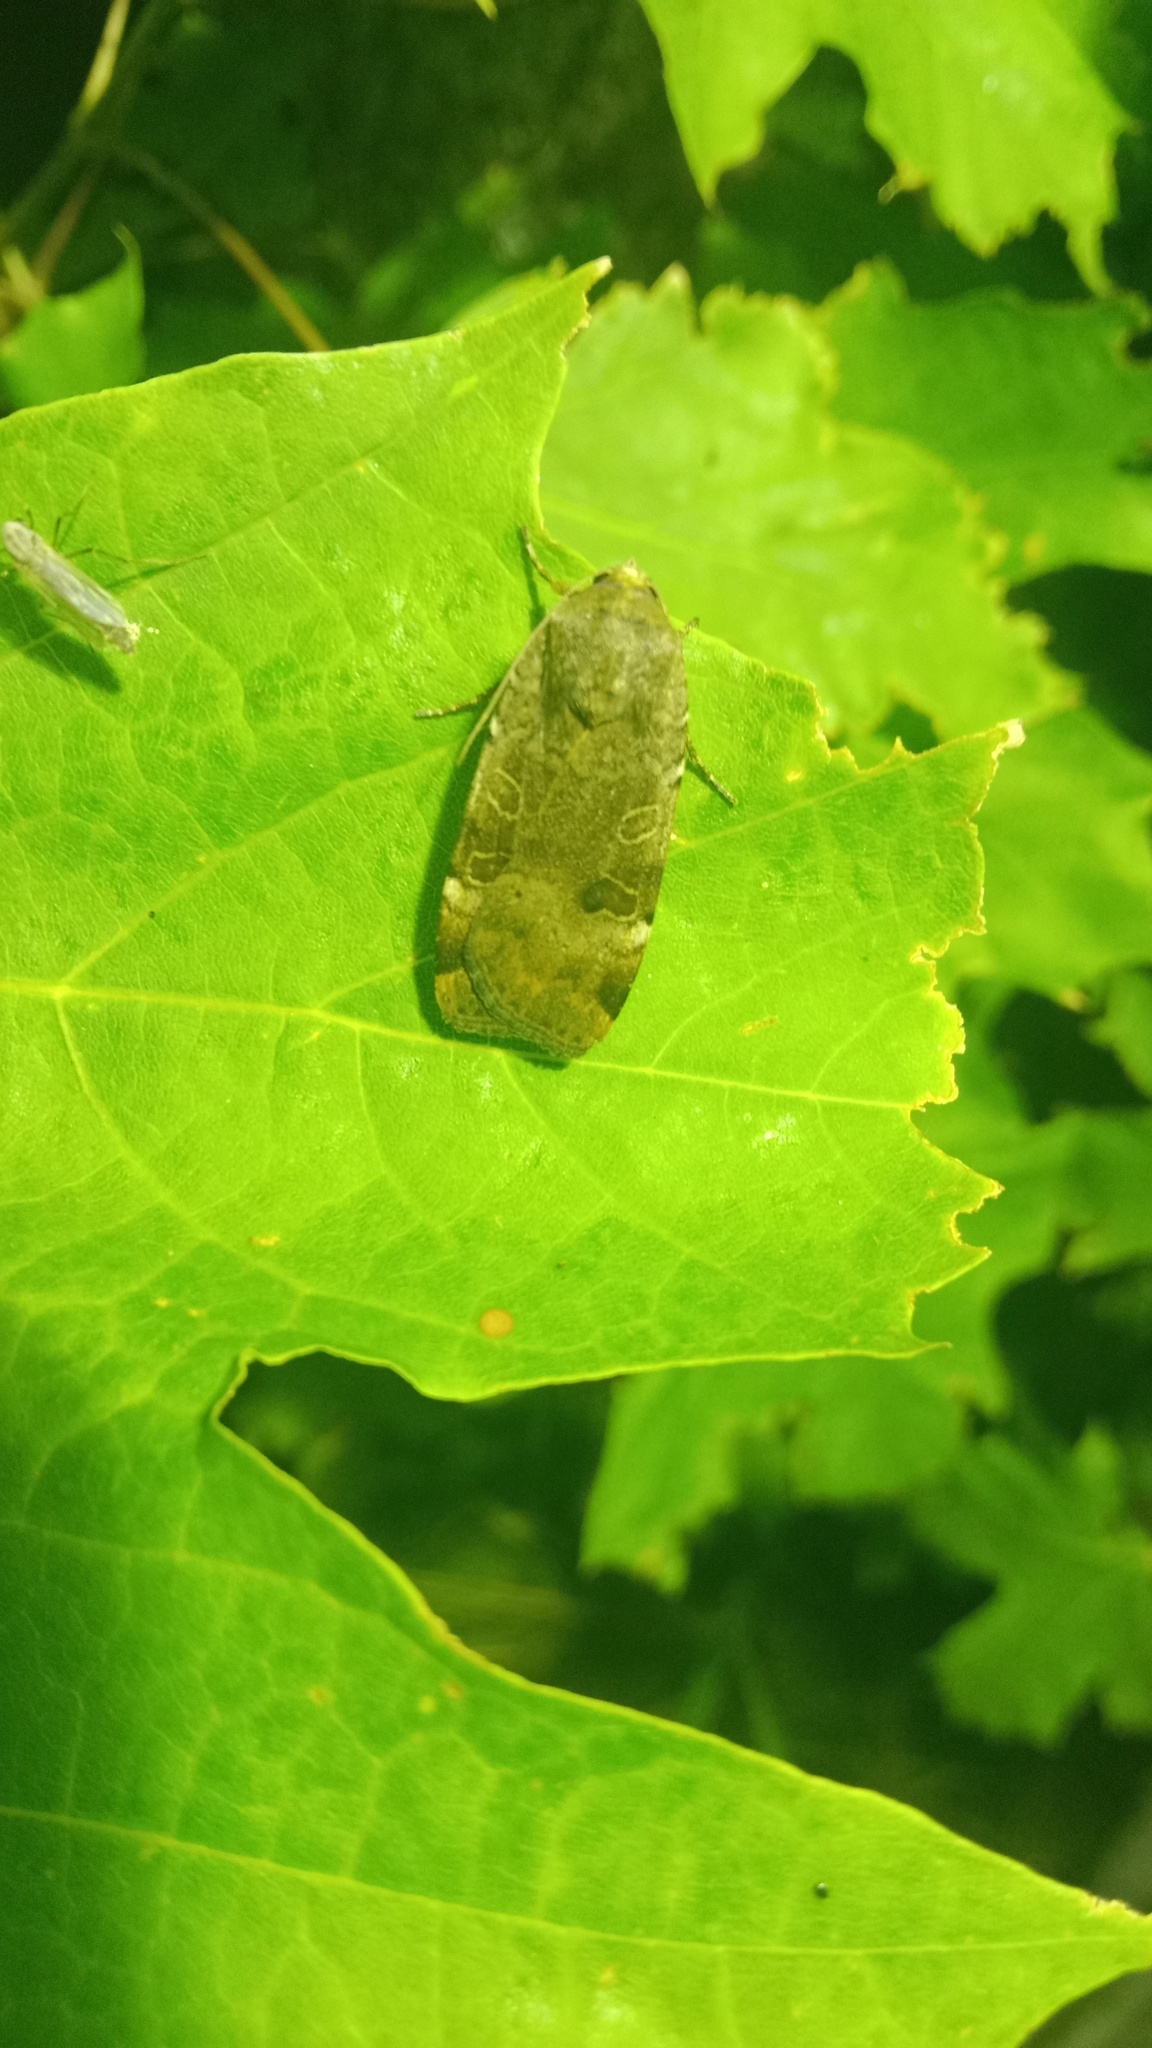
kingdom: Animalia
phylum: Arthropoda
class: Insecta
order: Lepidoptera
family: Noctuidae
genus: Noctua
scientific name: Noctua interposita
